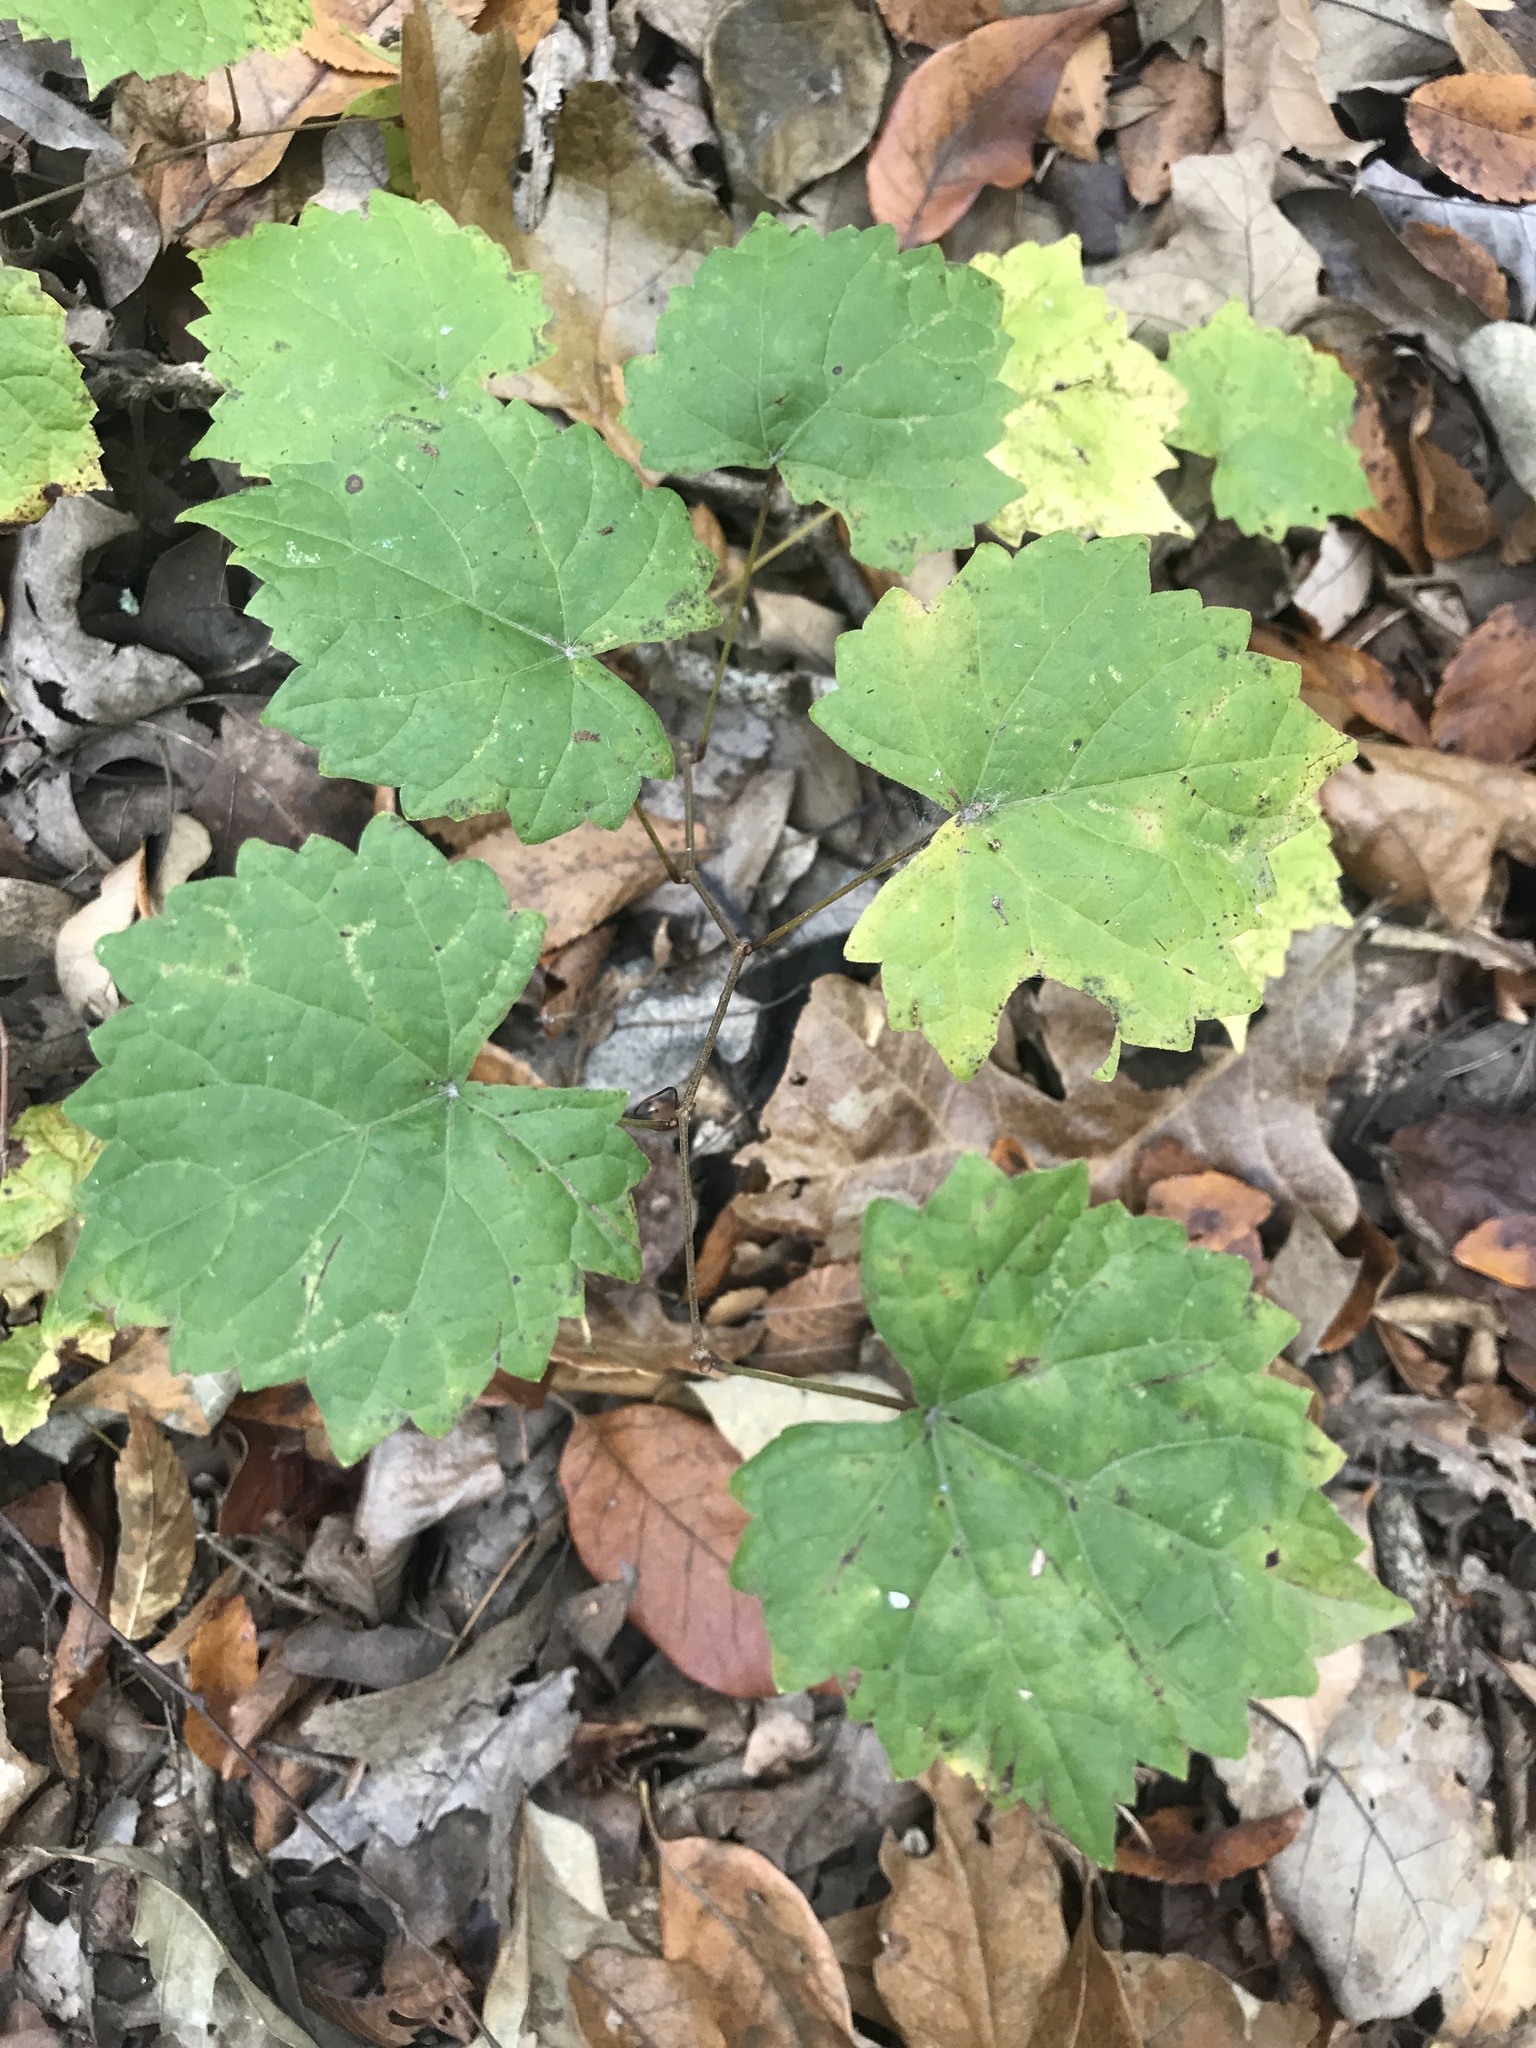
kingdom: Plantae
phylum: Tracheophyta
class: Magnoliopsida
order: Vitales
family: Vitaceae
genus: Vitis
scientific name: Vitis rotundifolia
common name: Muscadine grape
